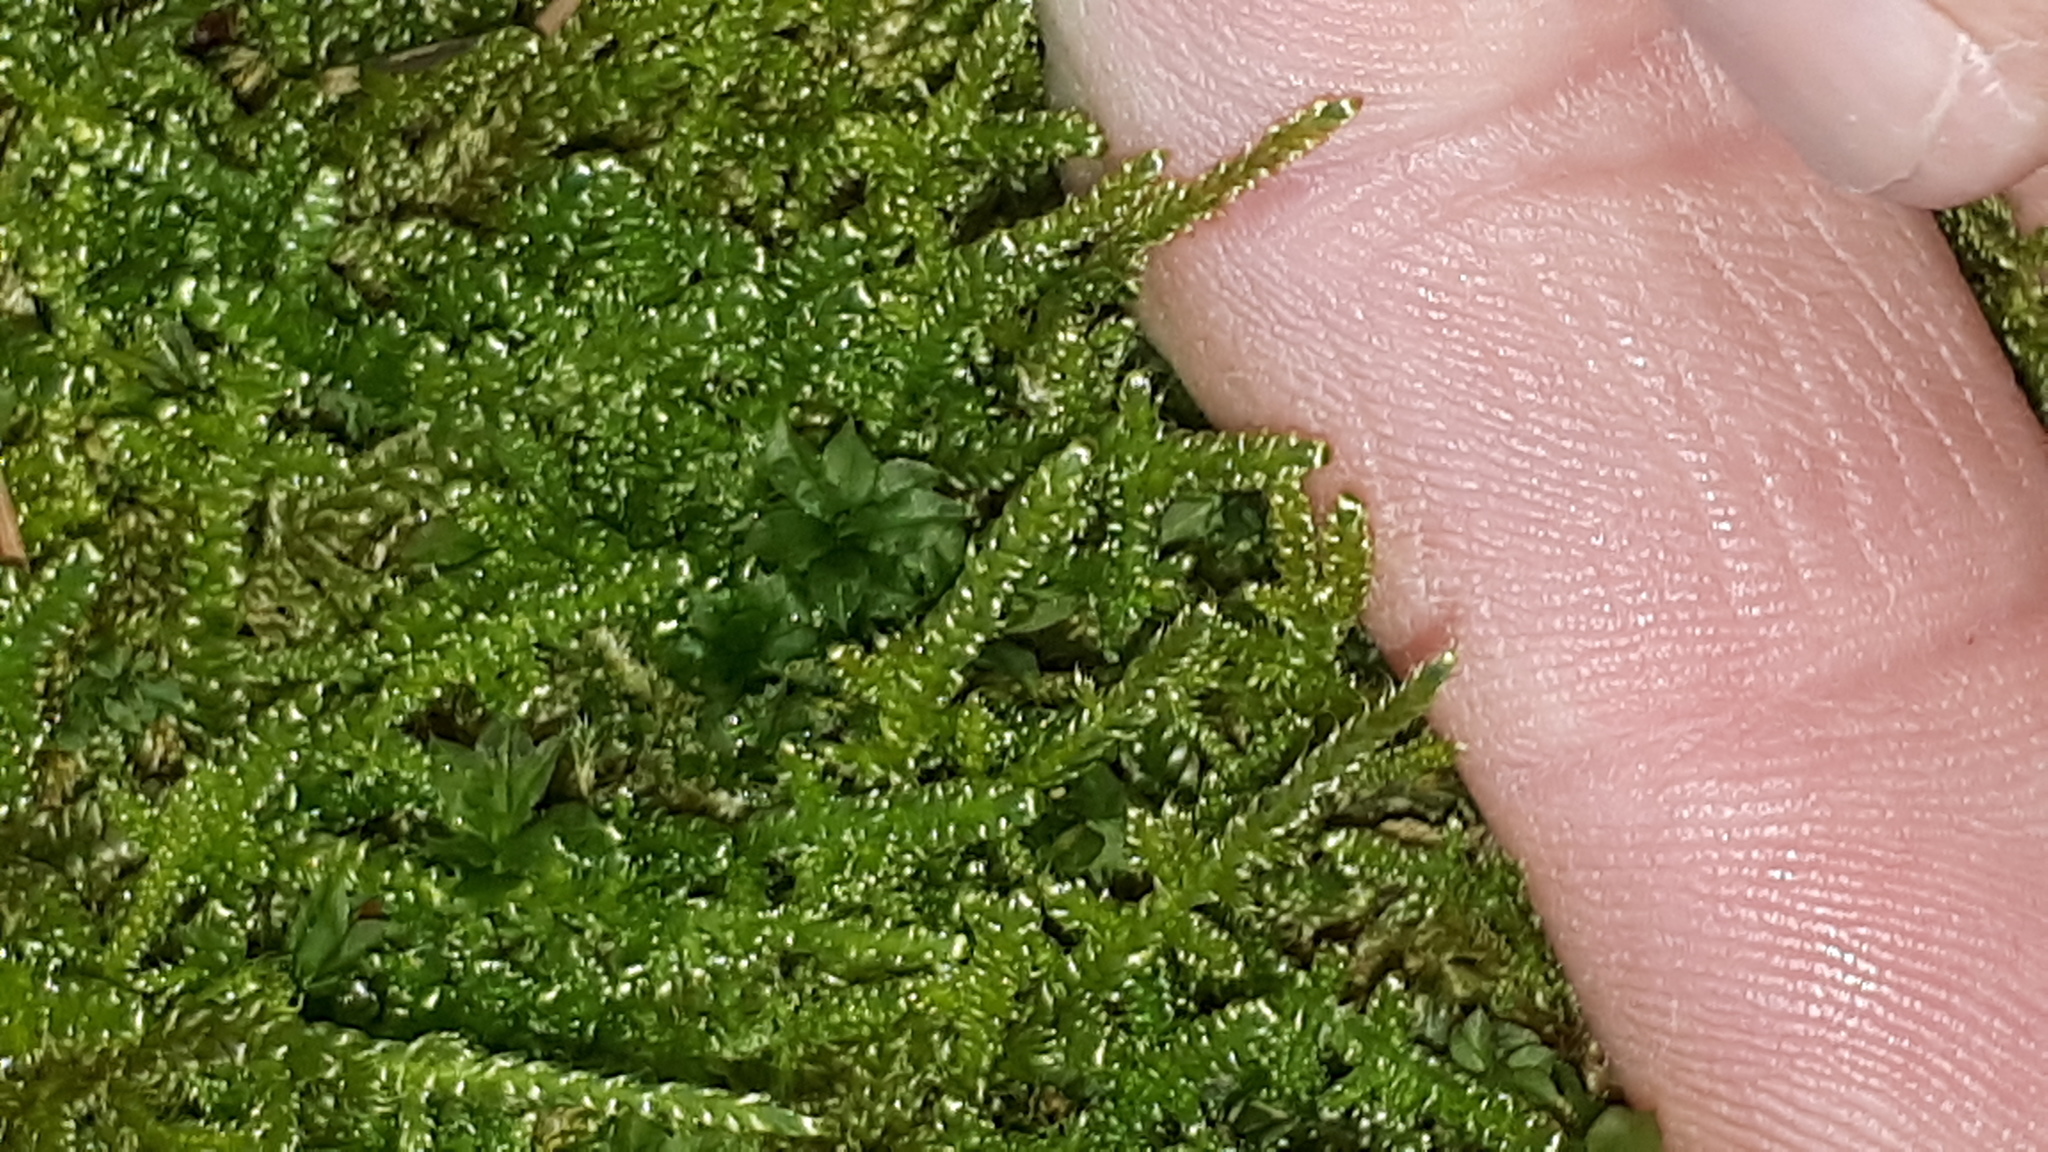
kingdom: Plantae
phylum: Bryophyta
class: Bryopsida
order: Hypnales
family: Hypnaceae
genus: Hypnum
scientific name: Hypnum cupressiforme
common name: Cypress-leaved plait-moss
